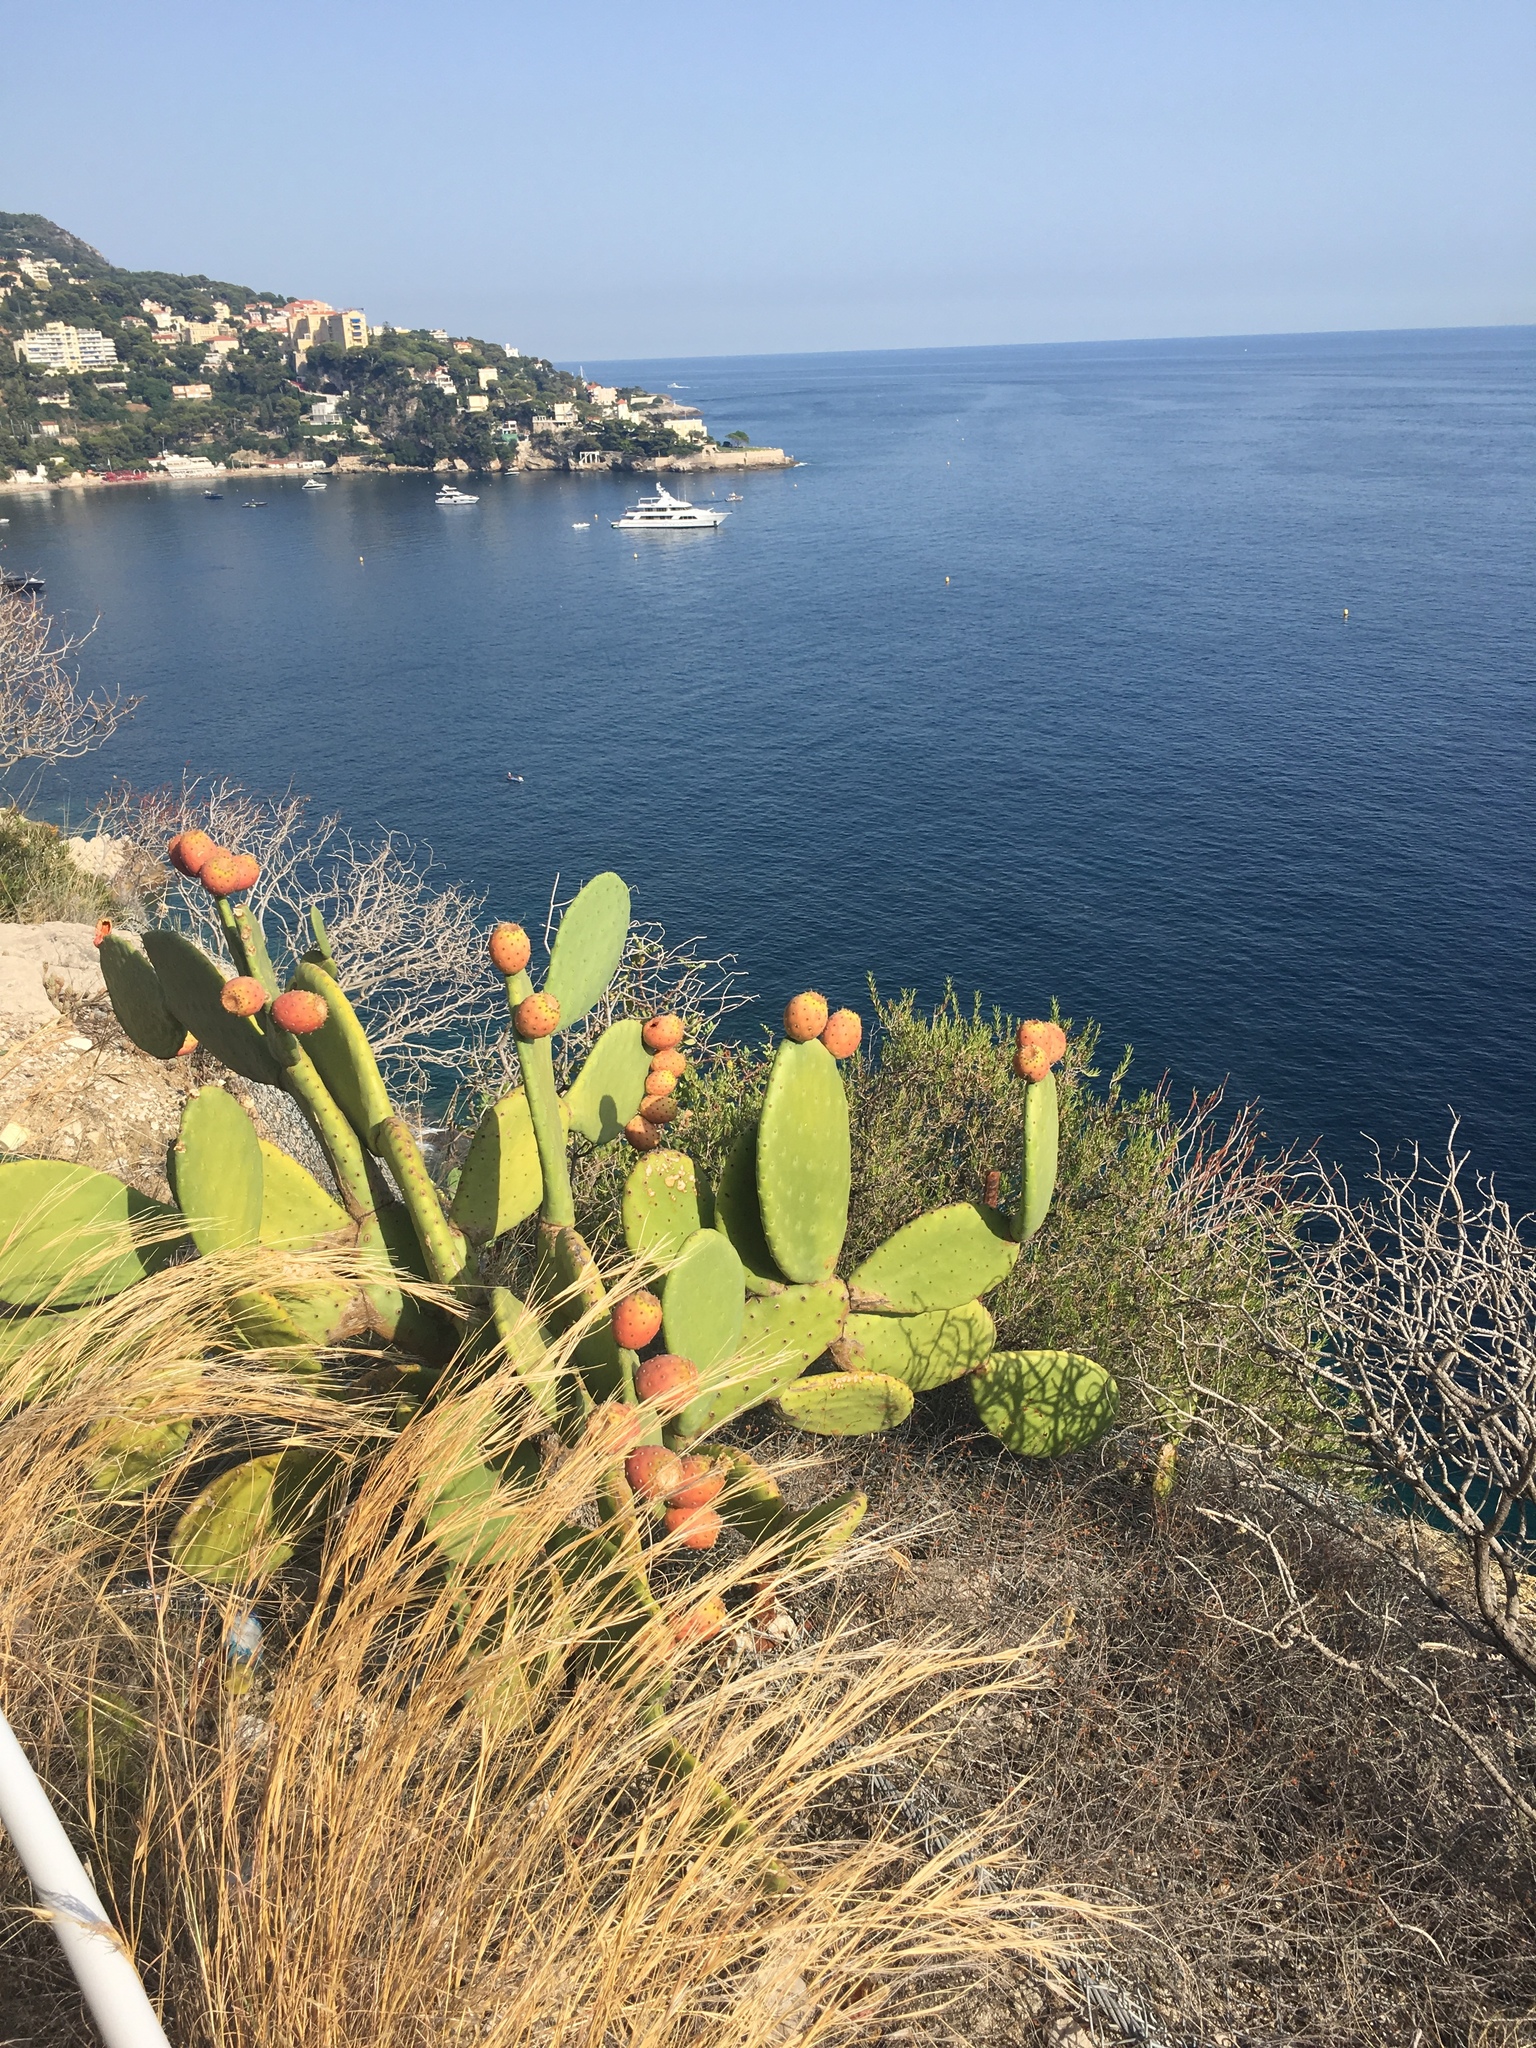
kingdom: Plantae
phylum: Tracheophyta
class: Magnoliopsida
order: Caryophyllales
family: Cactaceae
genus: Opuntia
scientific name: Opuntia ficus-indica
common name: Barbary fig
